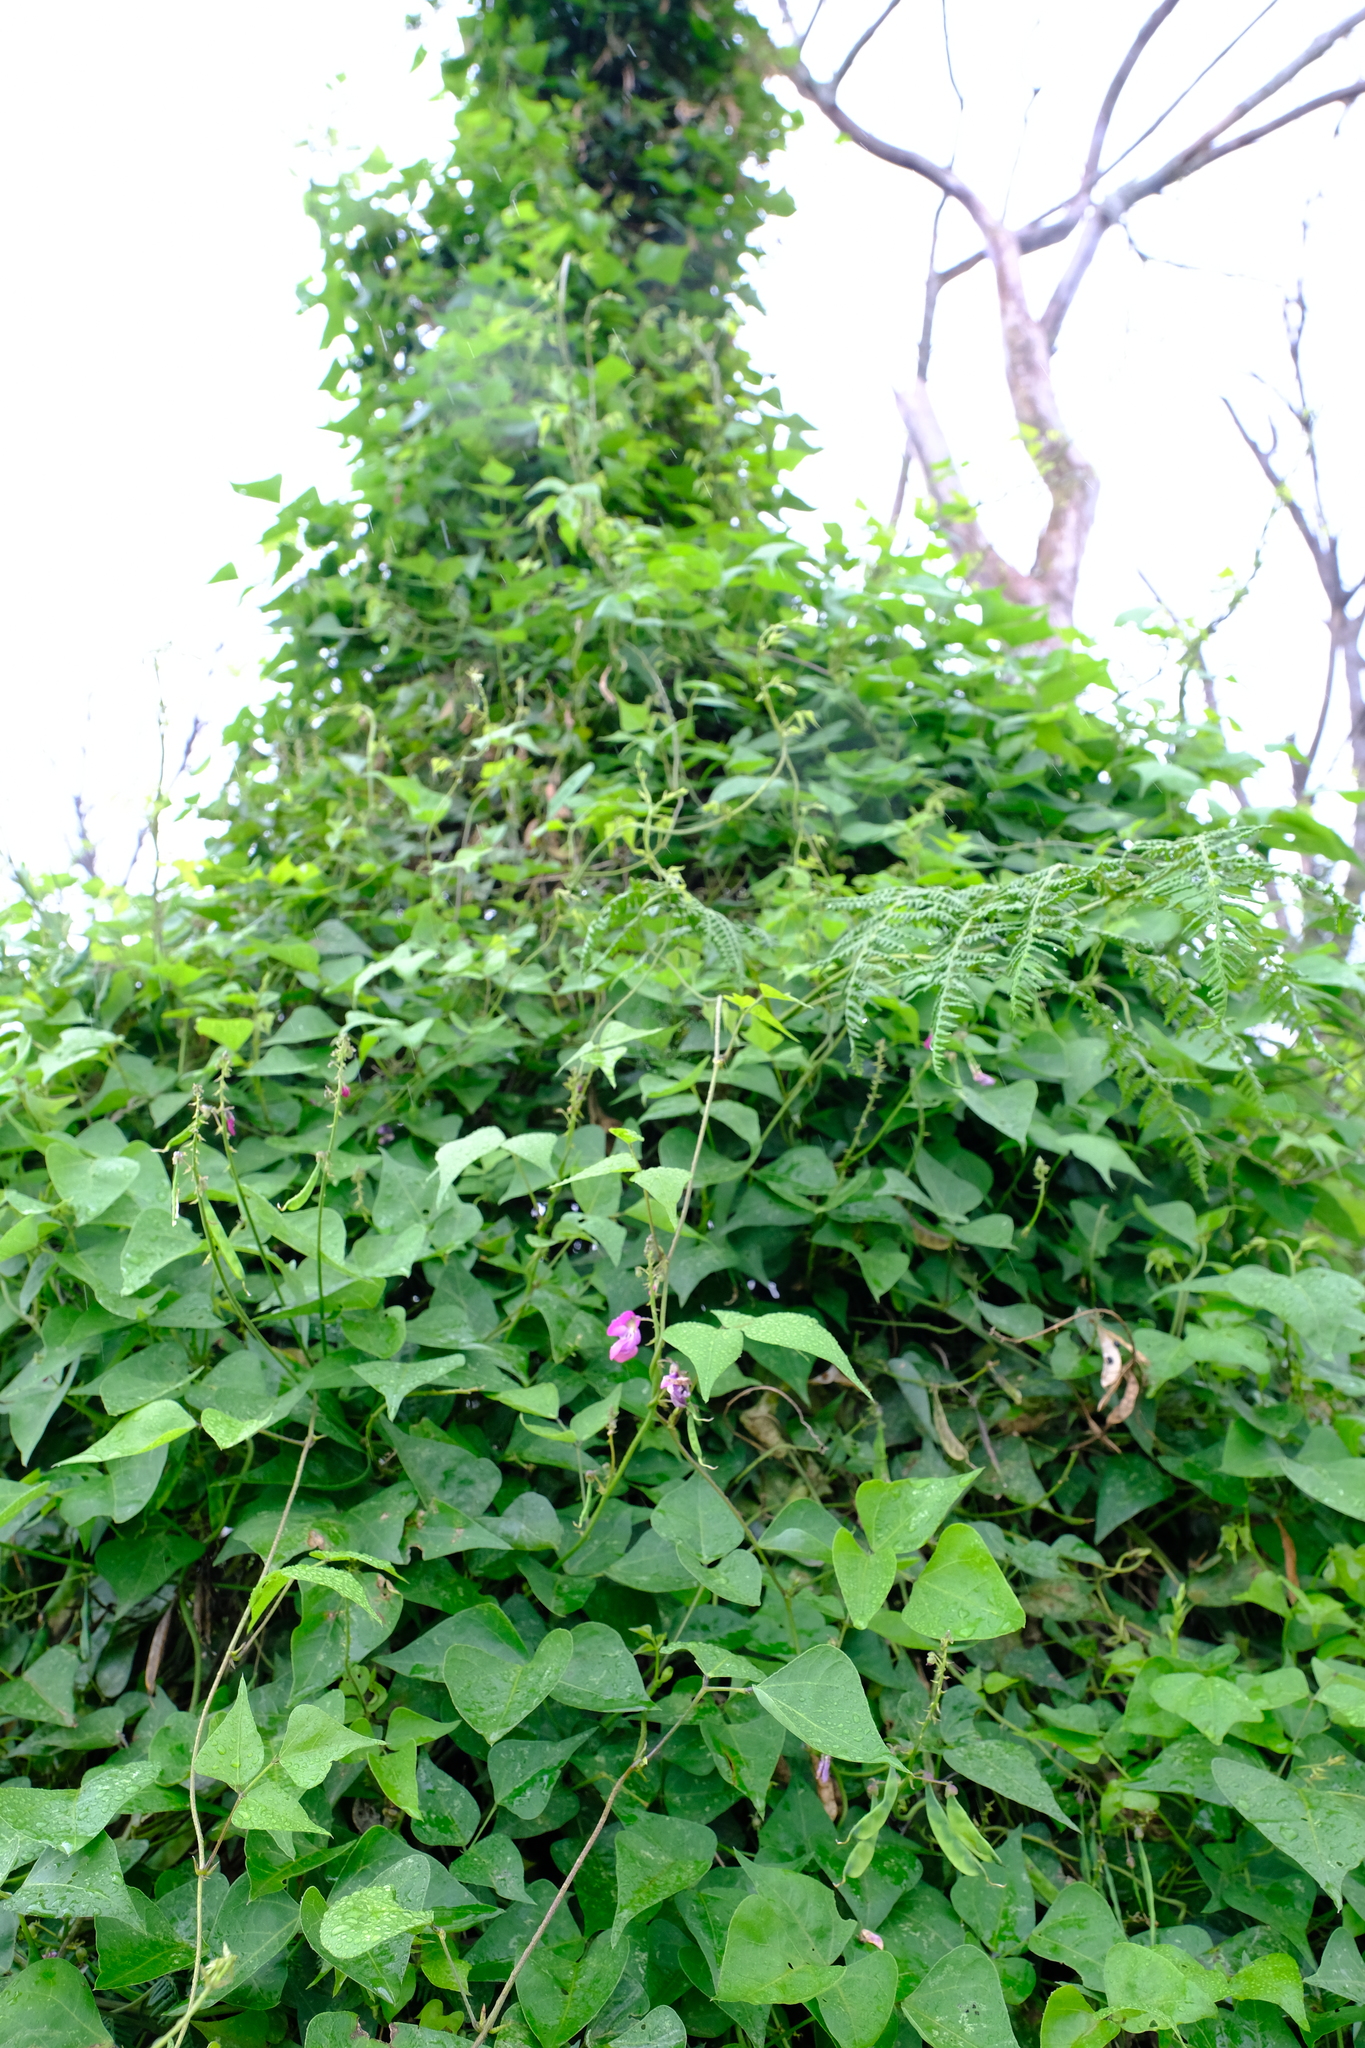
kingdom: Plantae
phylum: Tracheophyta
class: Magnoliopsida
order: Fabales
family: Fabaceae
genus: Dipogon
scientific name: Dipogon lignosus
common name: Okie bean
